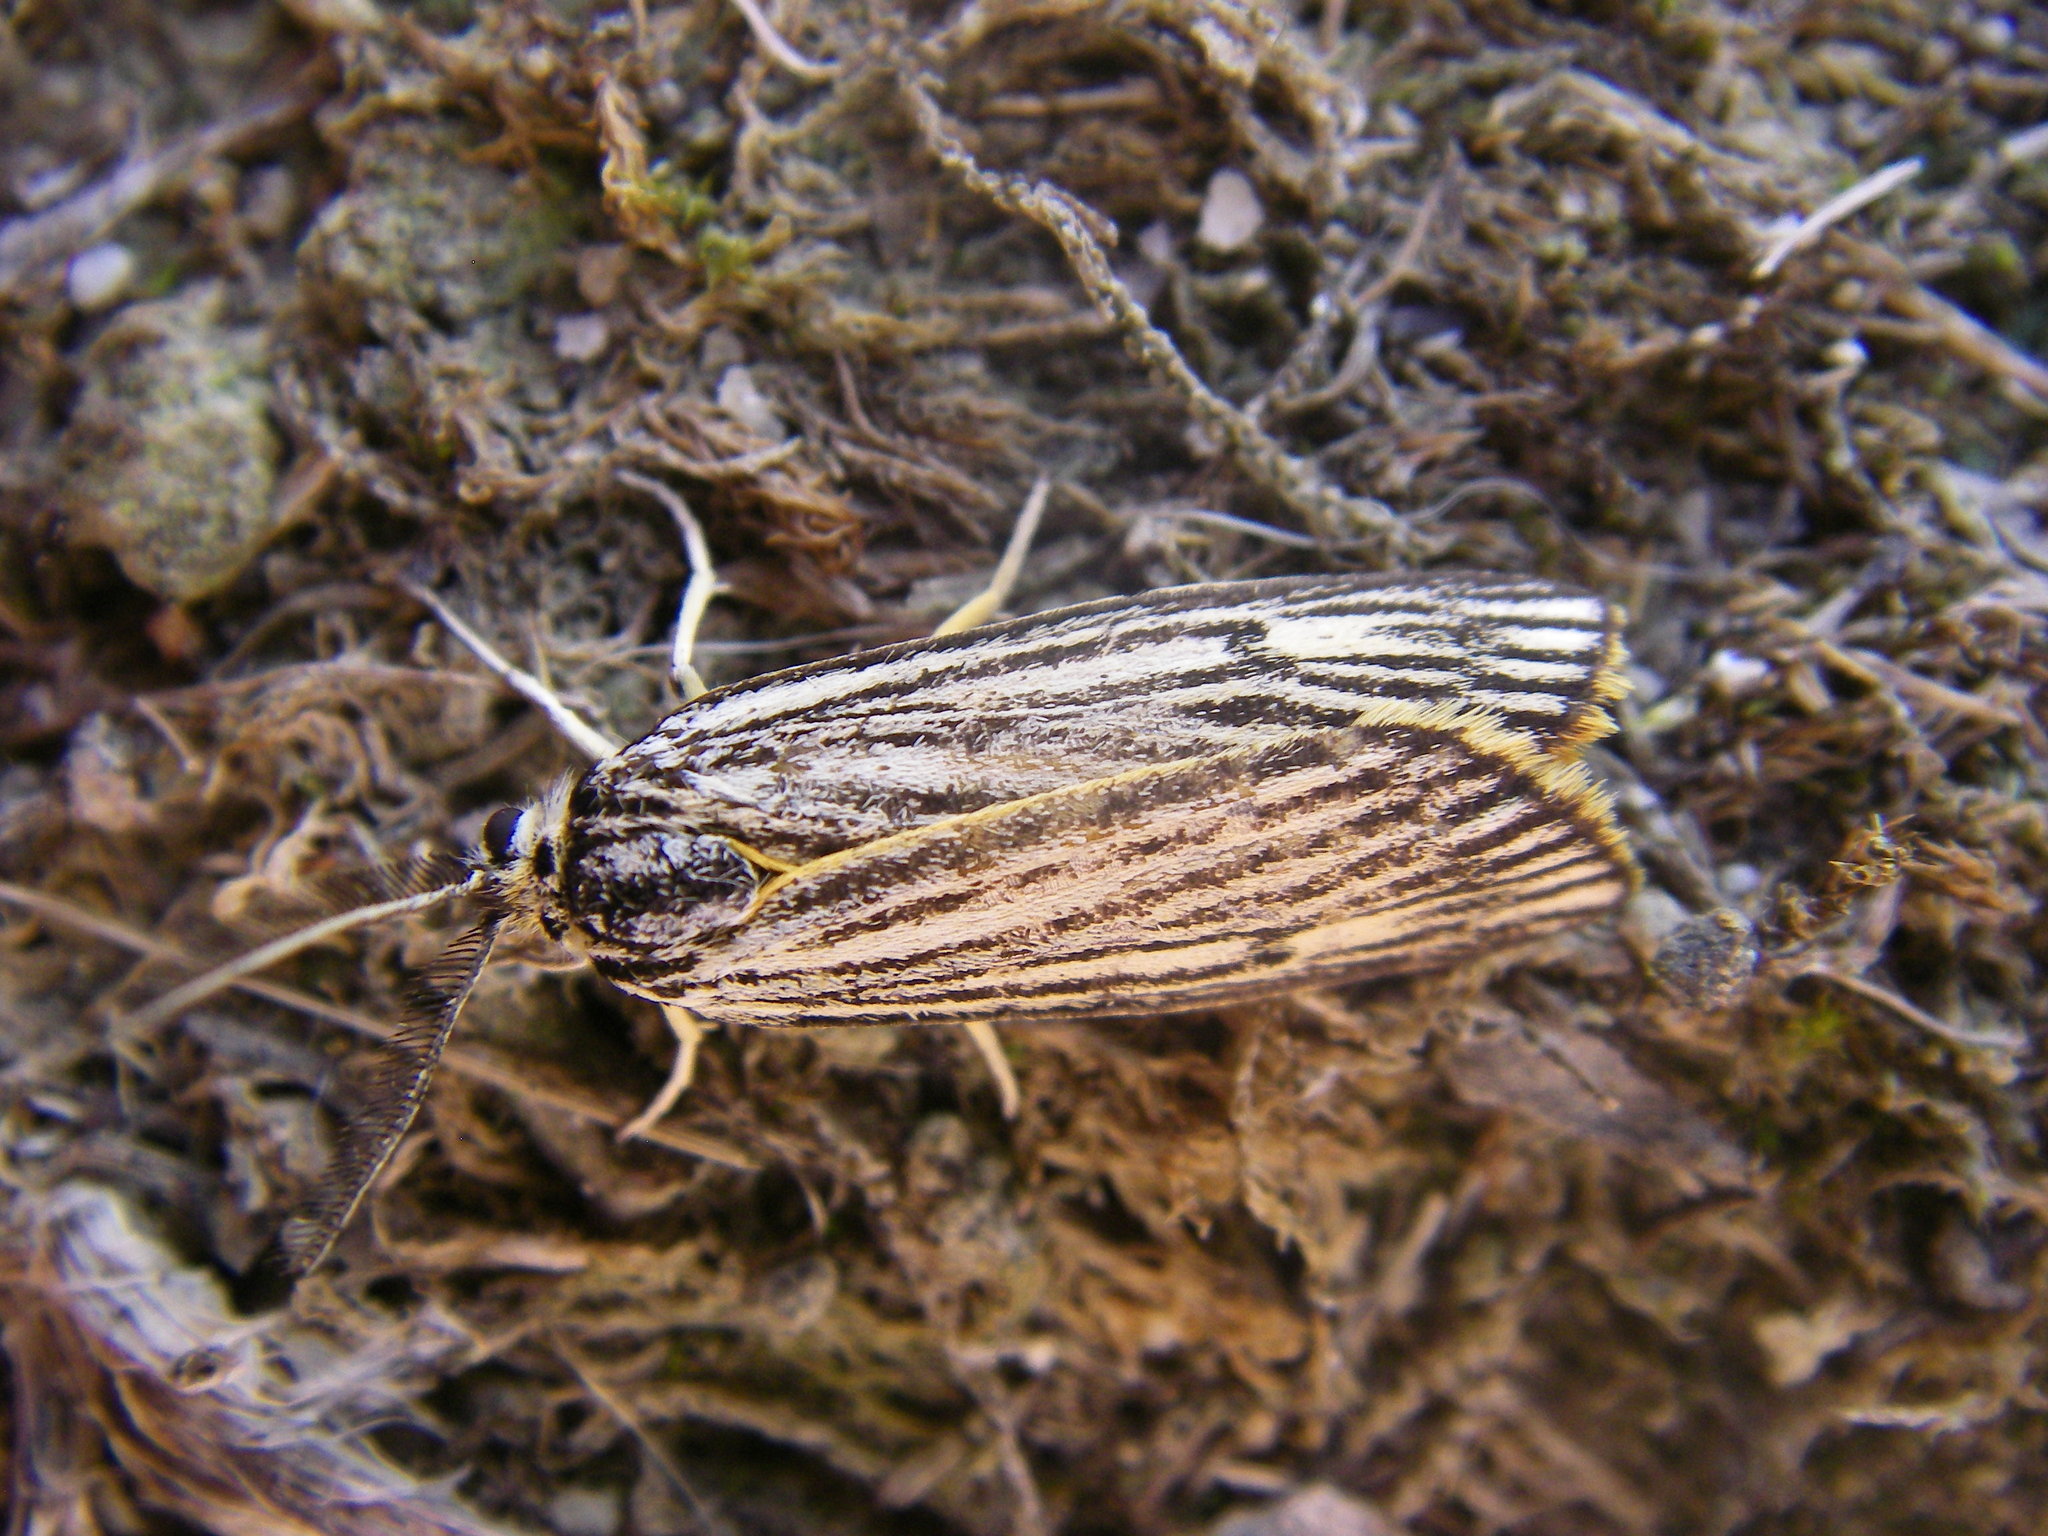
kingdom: Animalia
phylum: Arthropoda
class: Insecta
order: Lepidoptera
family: Erebidae
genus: Coscinia
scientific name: Coscinia Spiris striata
